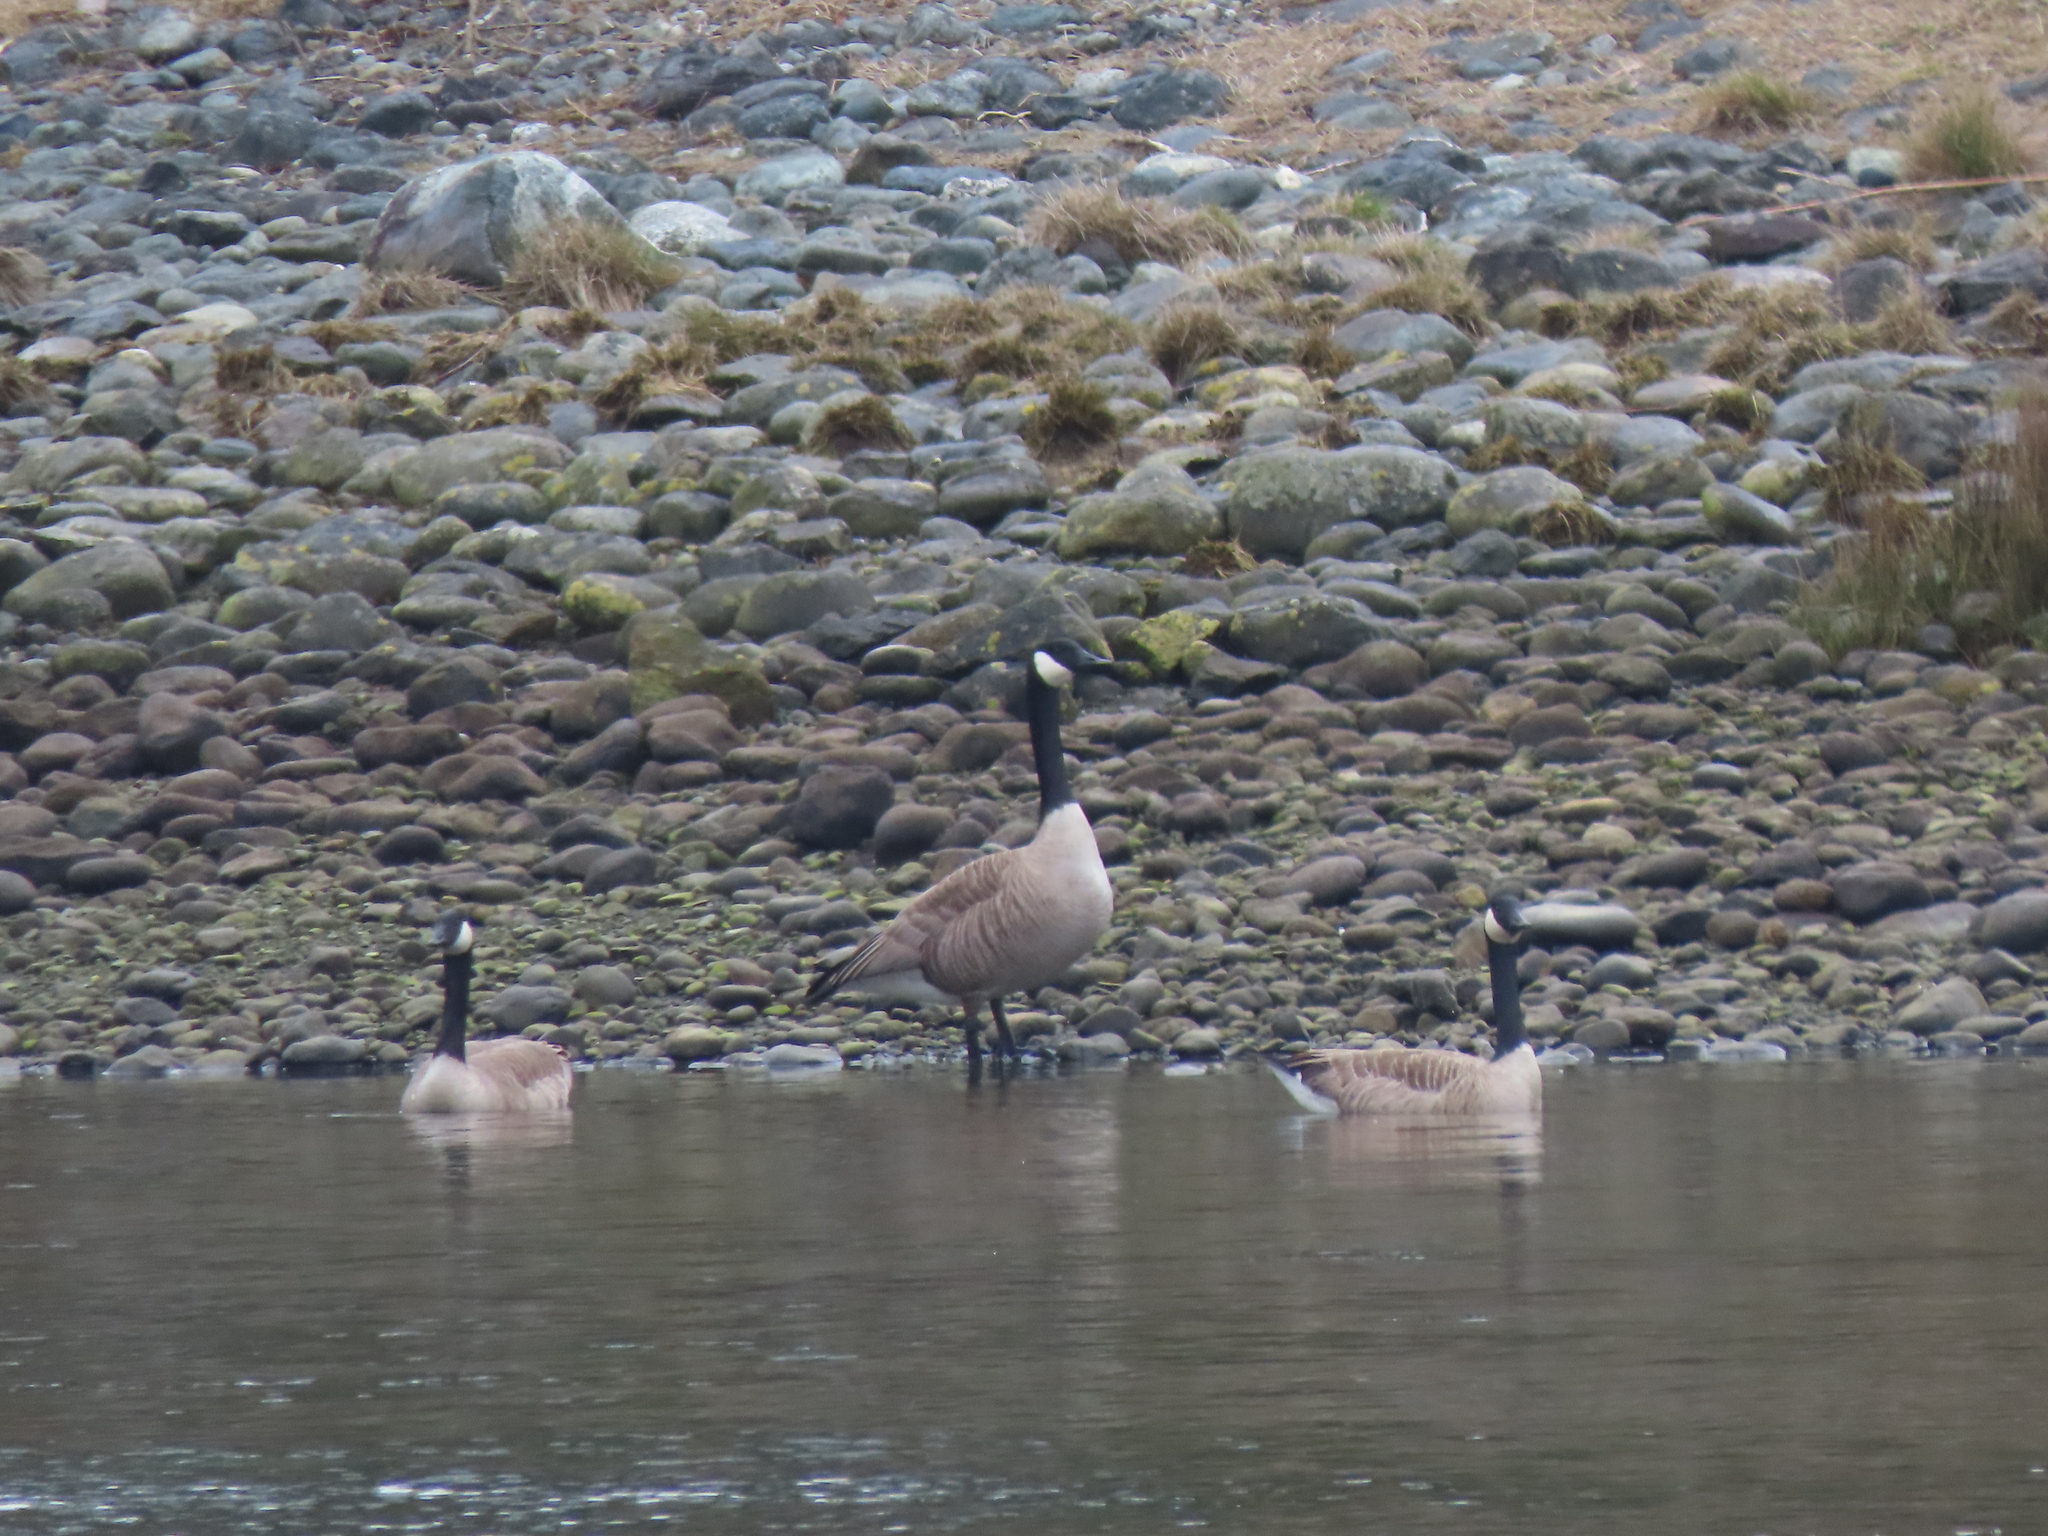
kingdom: Animalia
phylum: Chordata
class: Aves
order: Anseriformes
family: Anatidae
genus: Branta
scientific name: Branta canadensis
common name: Canada goose
